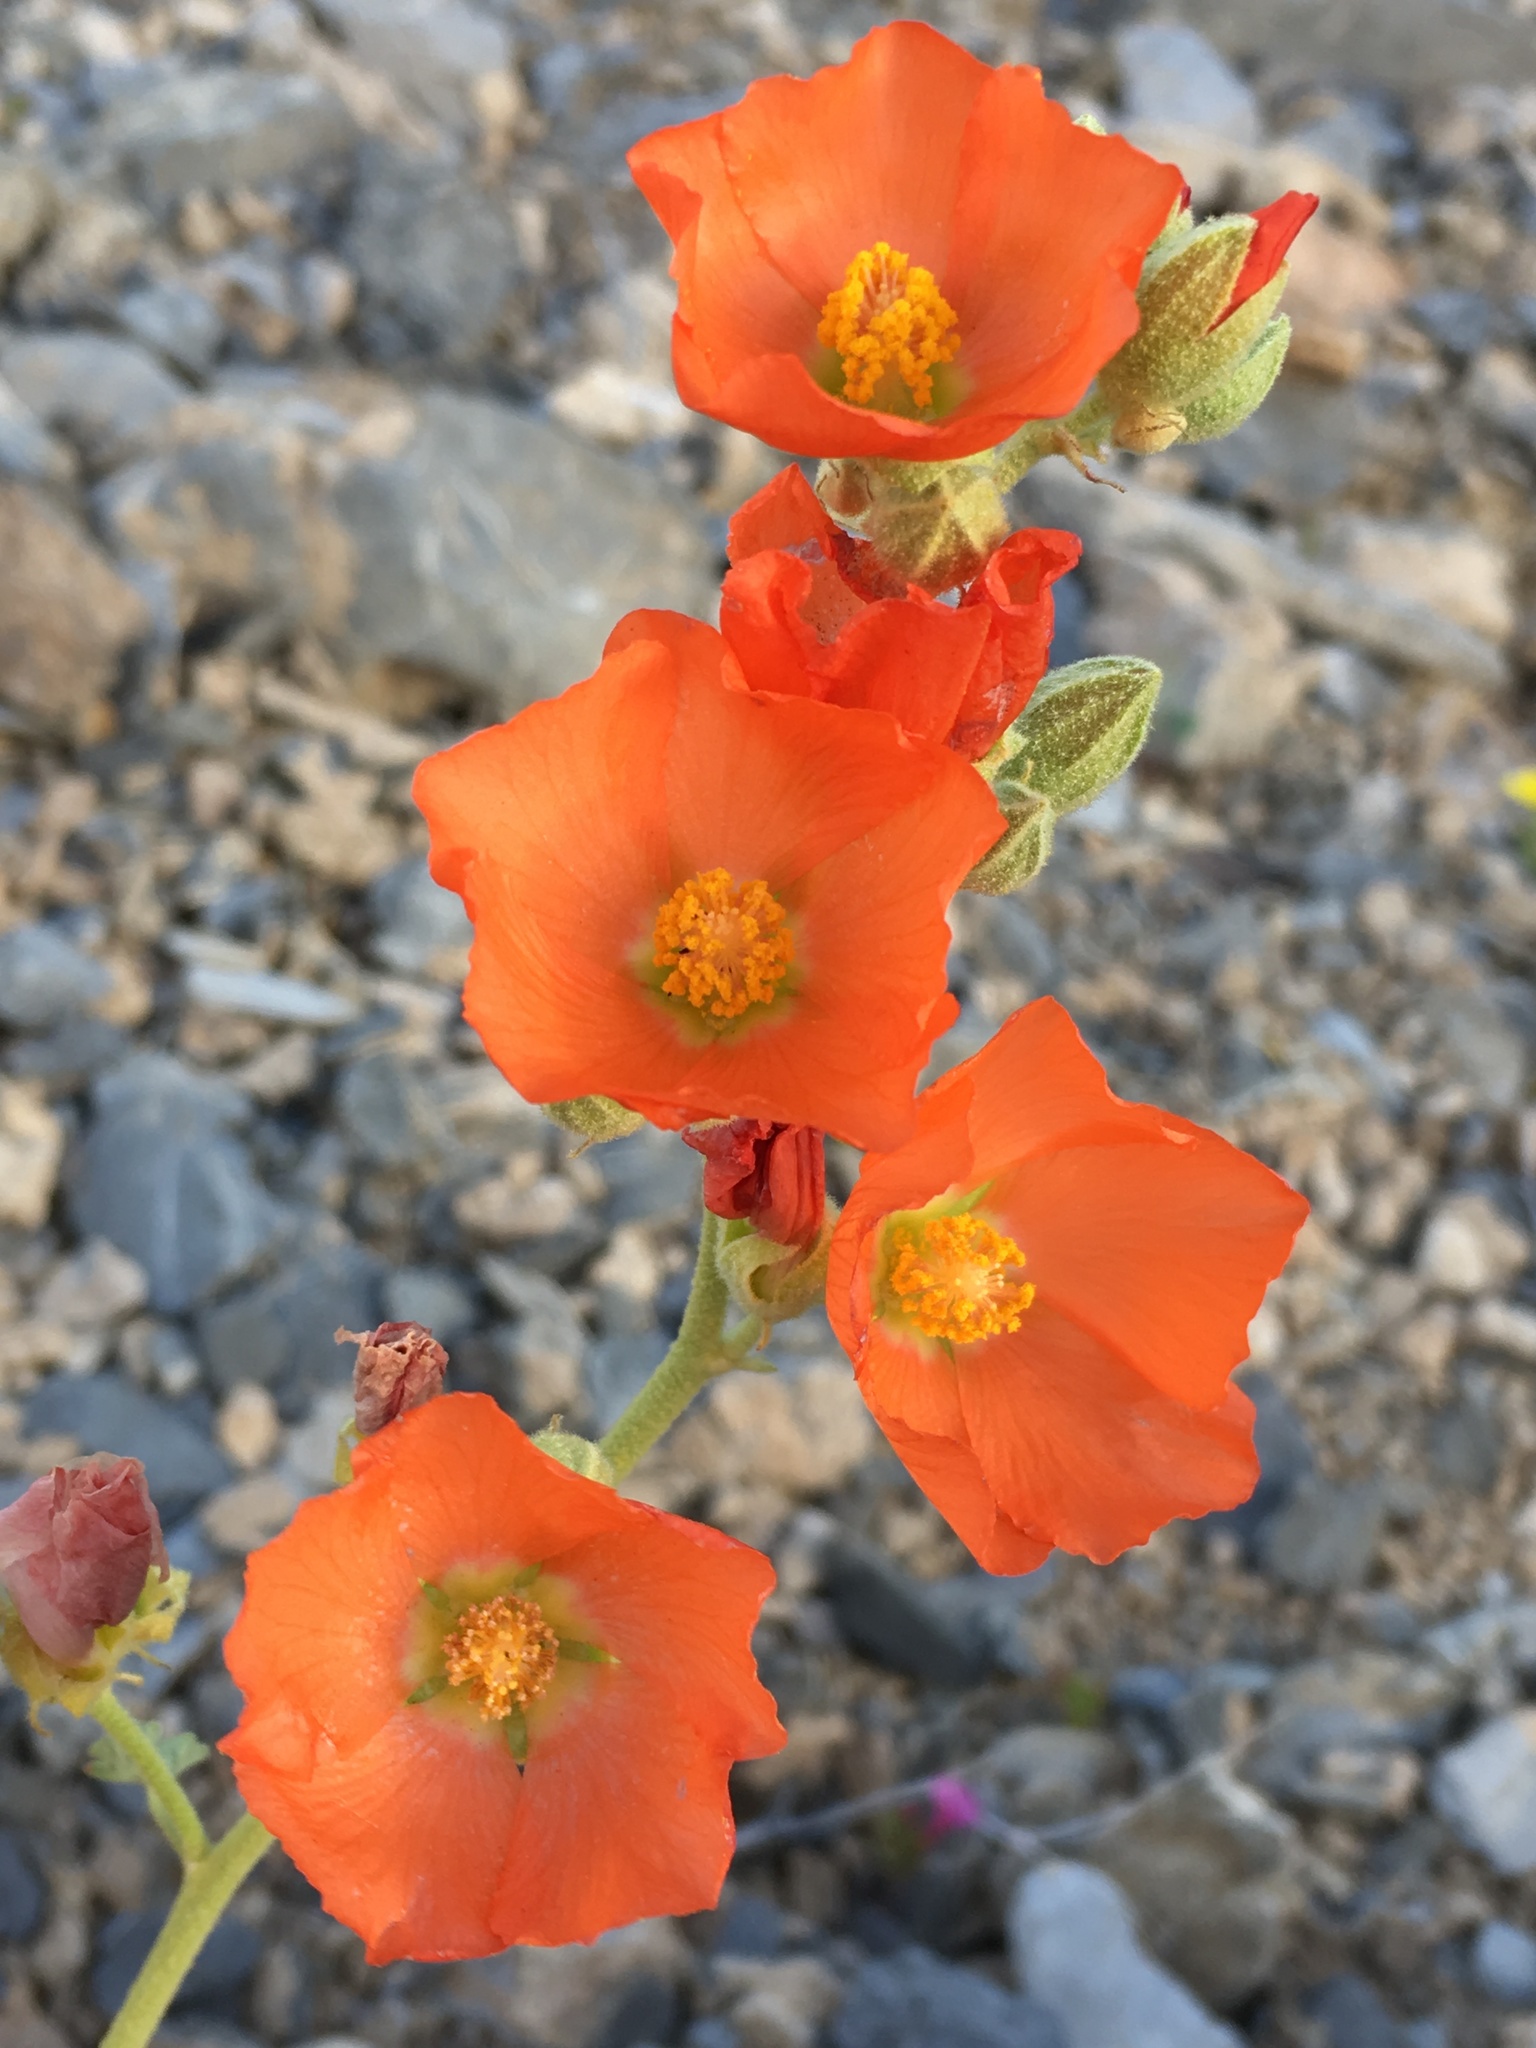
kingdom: Plantae
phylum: Tracheophyta
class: Magnoliopsida
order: Malvales
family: Malvaceae
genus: Sphaeralcea
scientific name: Sphaeralcea ambigua
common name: Apricot globe-mallow
